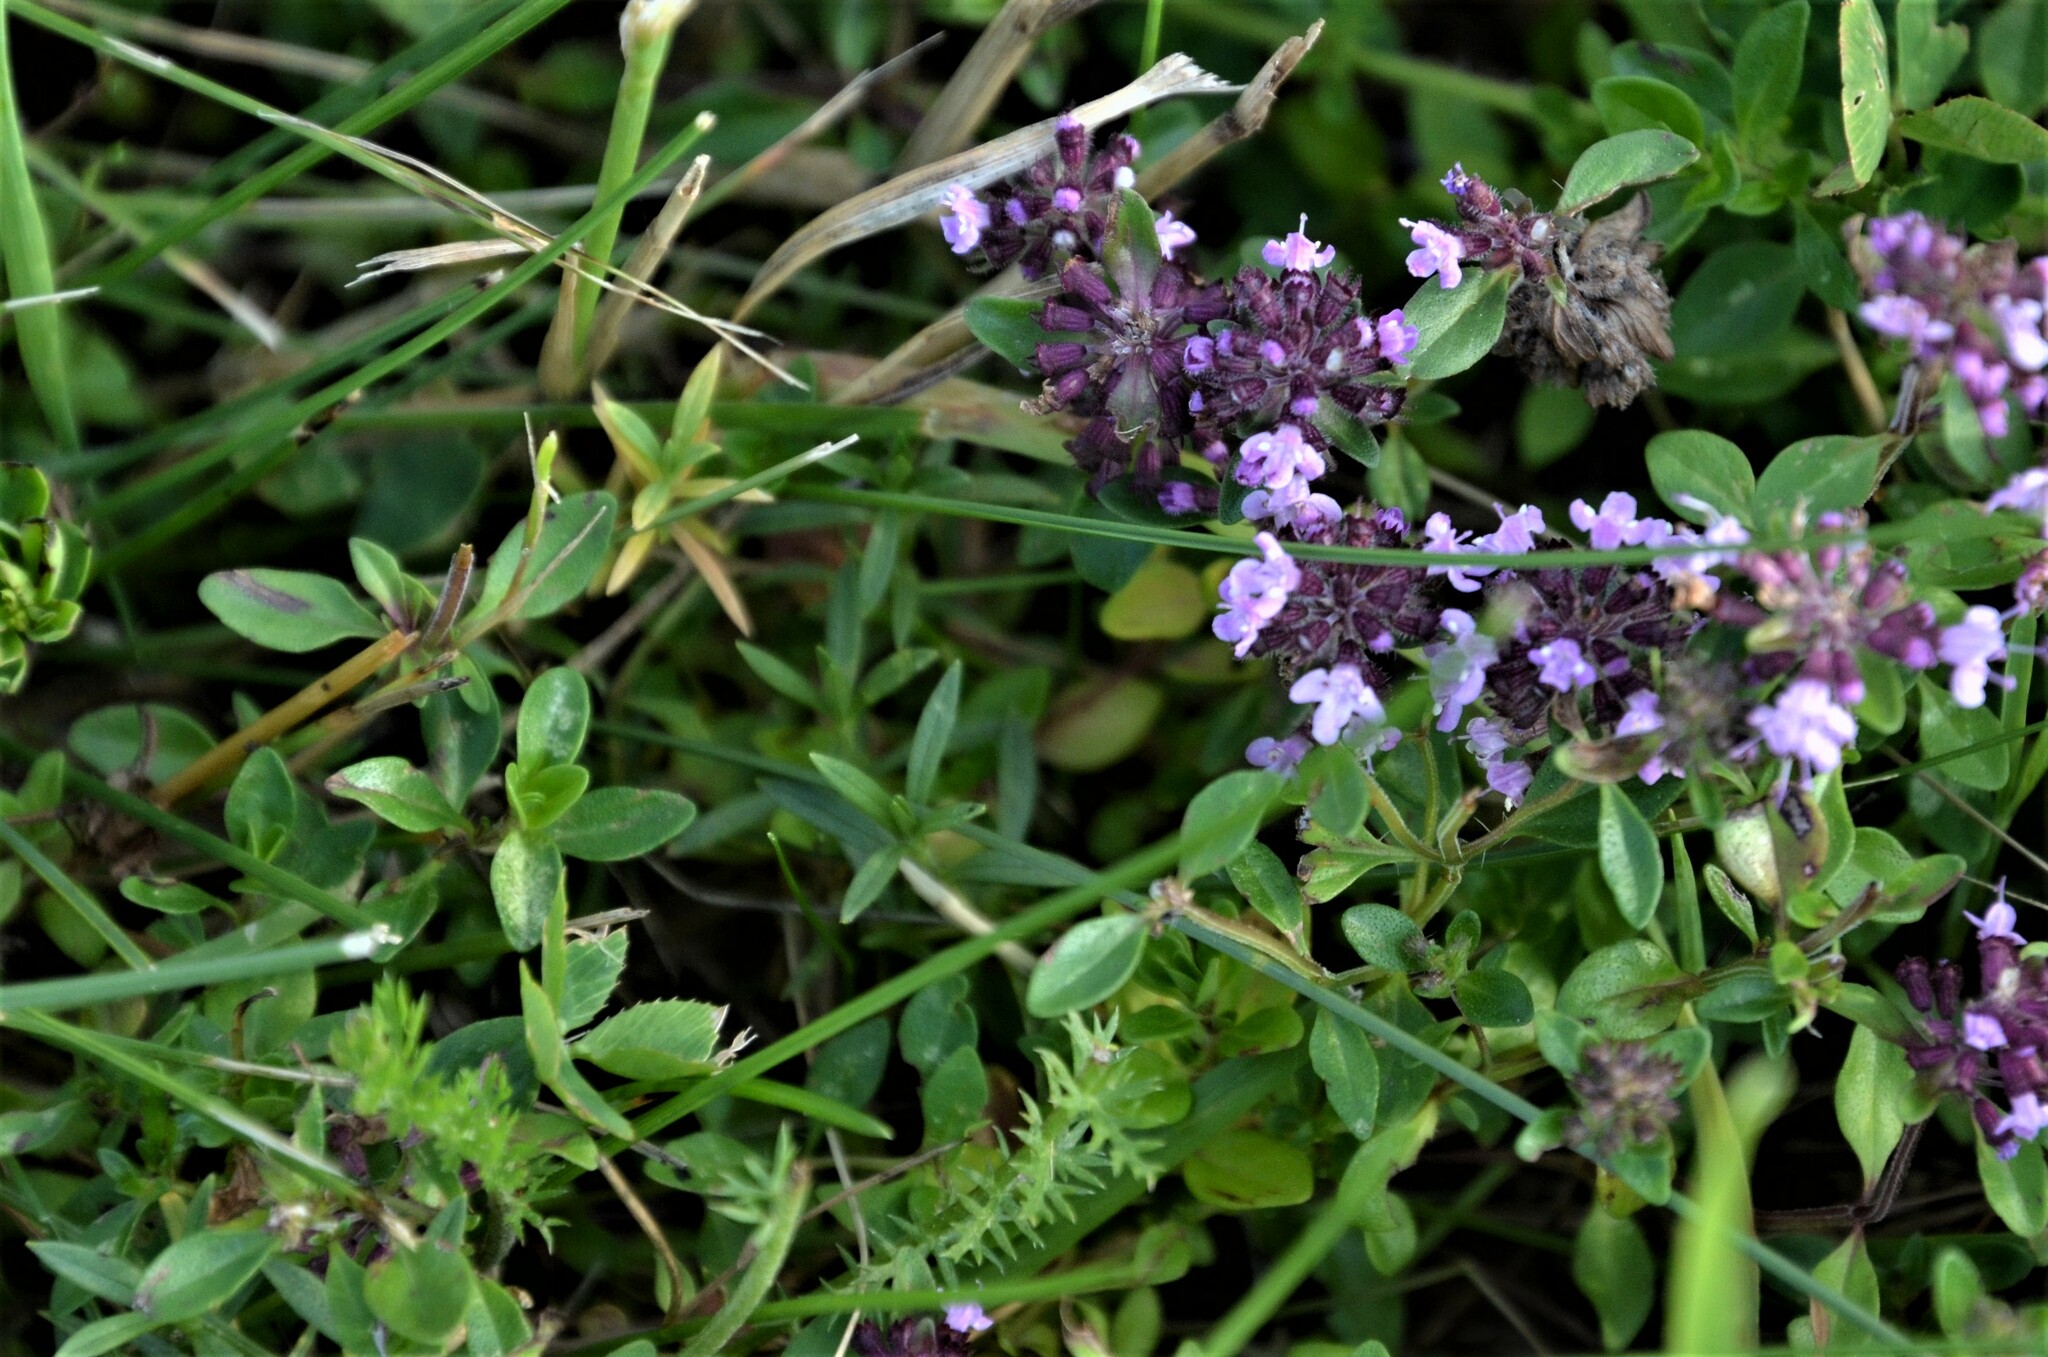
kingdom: Plantae
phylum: Tracheophyta
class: Magnoliopsida
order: Lamiales
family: Lamiaceae
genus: Thymus
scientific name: Thymus pulegioides
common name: Large thyme
